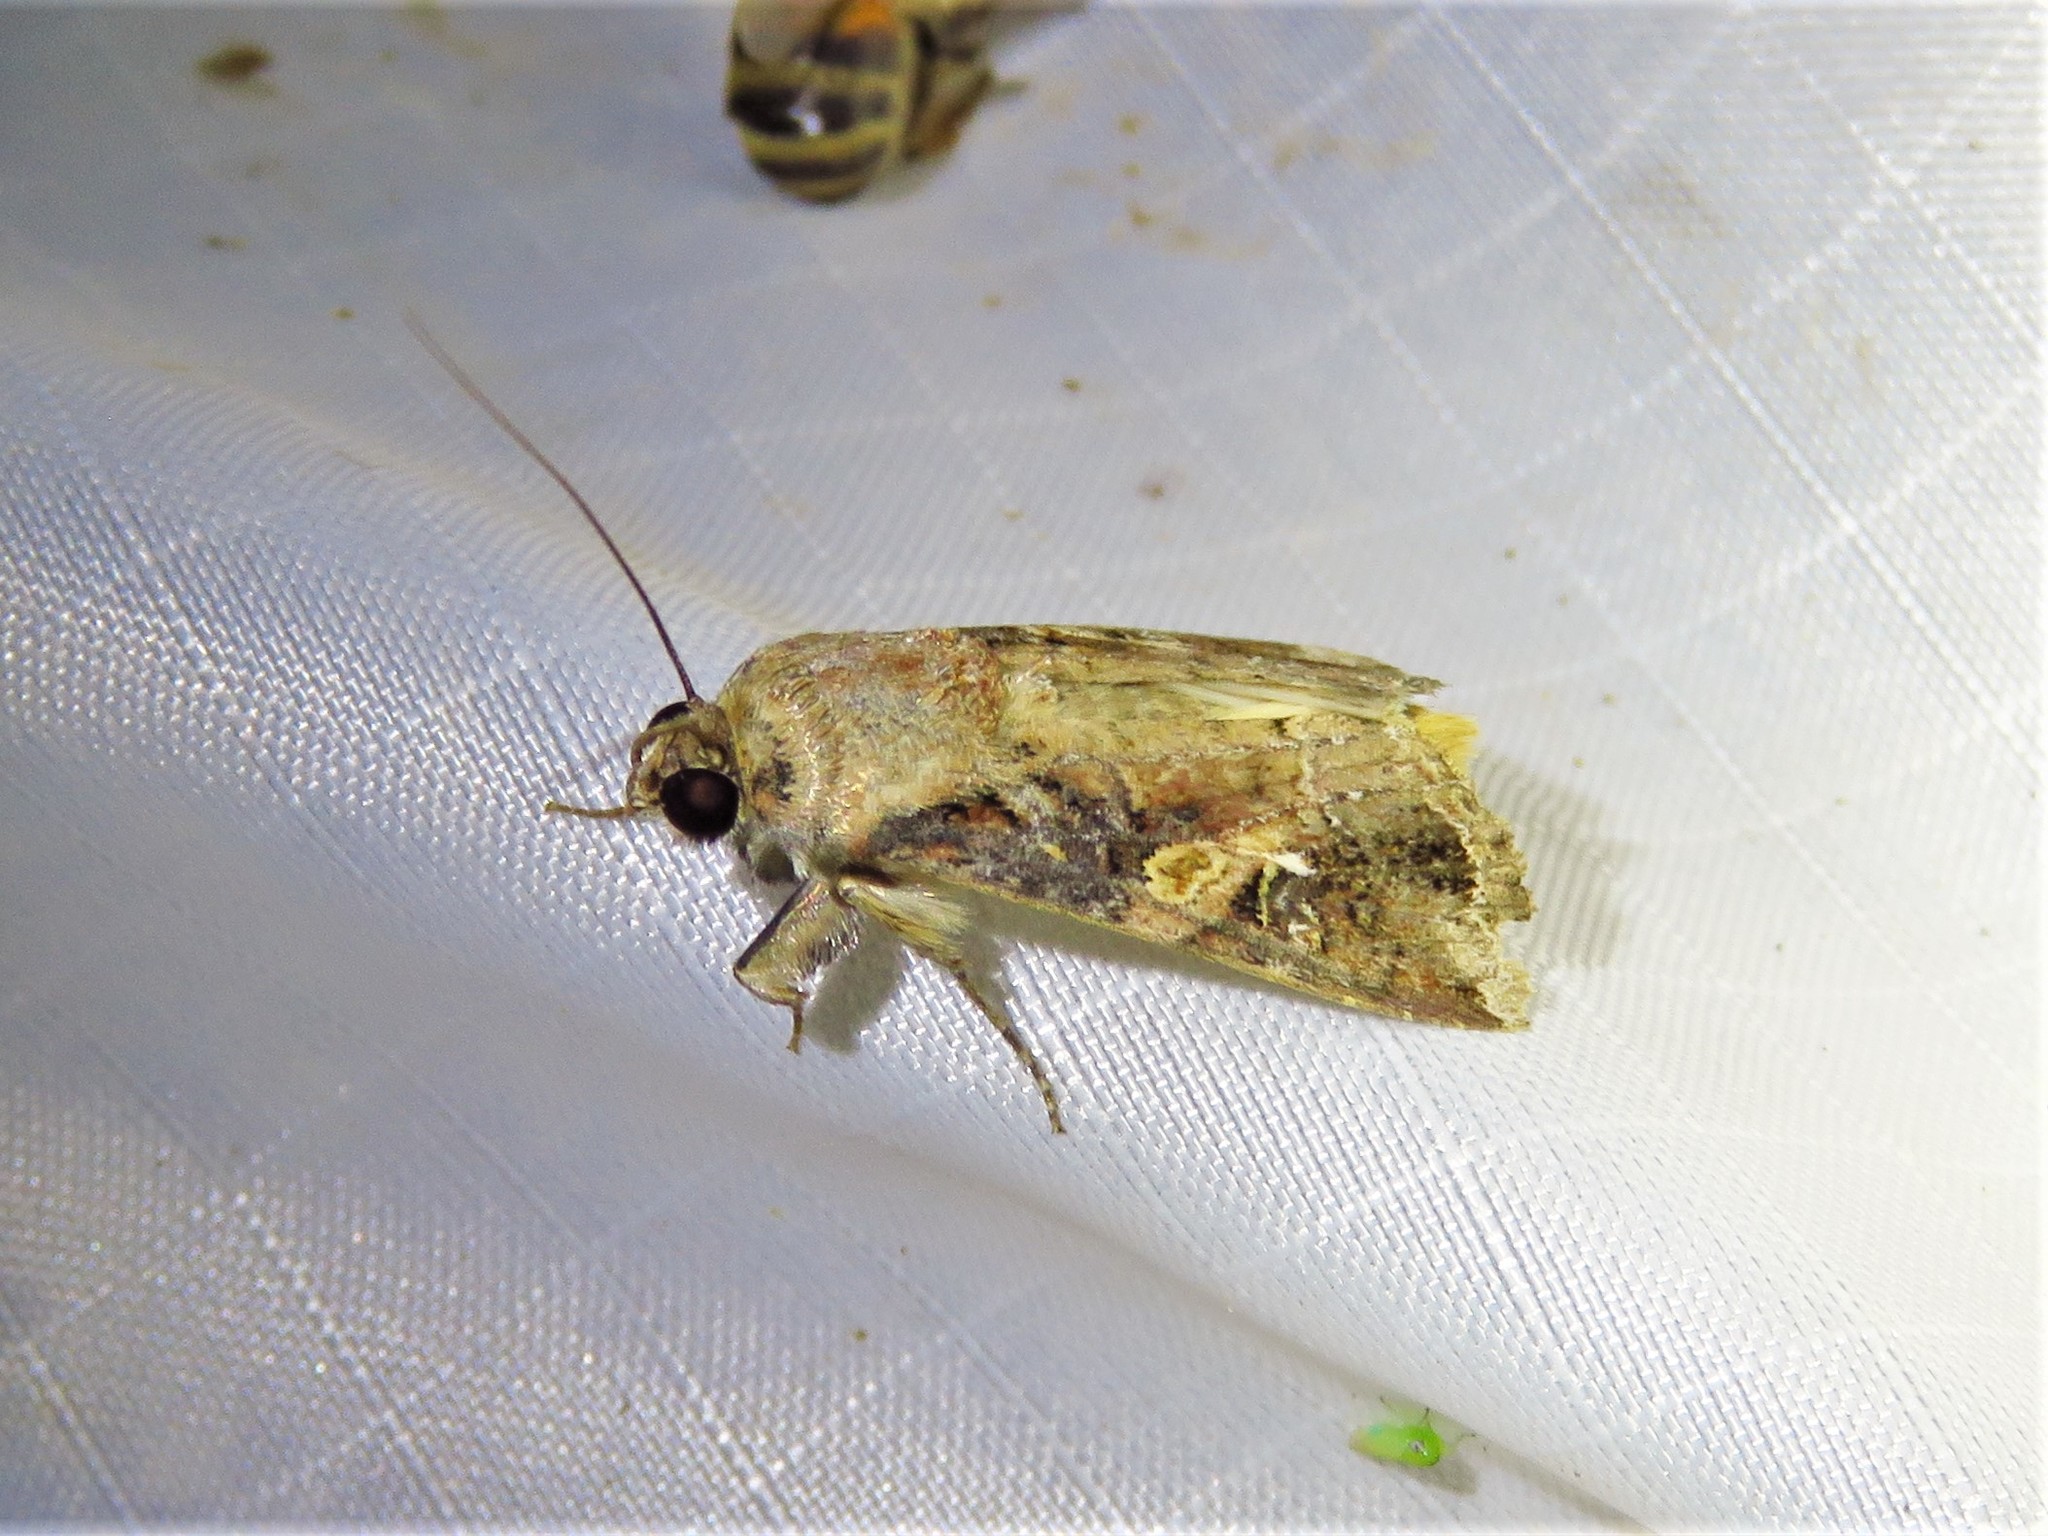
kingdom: Animalia
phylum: Arthropoda
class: Insecta
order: Lepidoptera
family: Noctuidae
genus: Spodoptera
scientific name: Spodoptera frugiperda
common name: Fall armyworm
